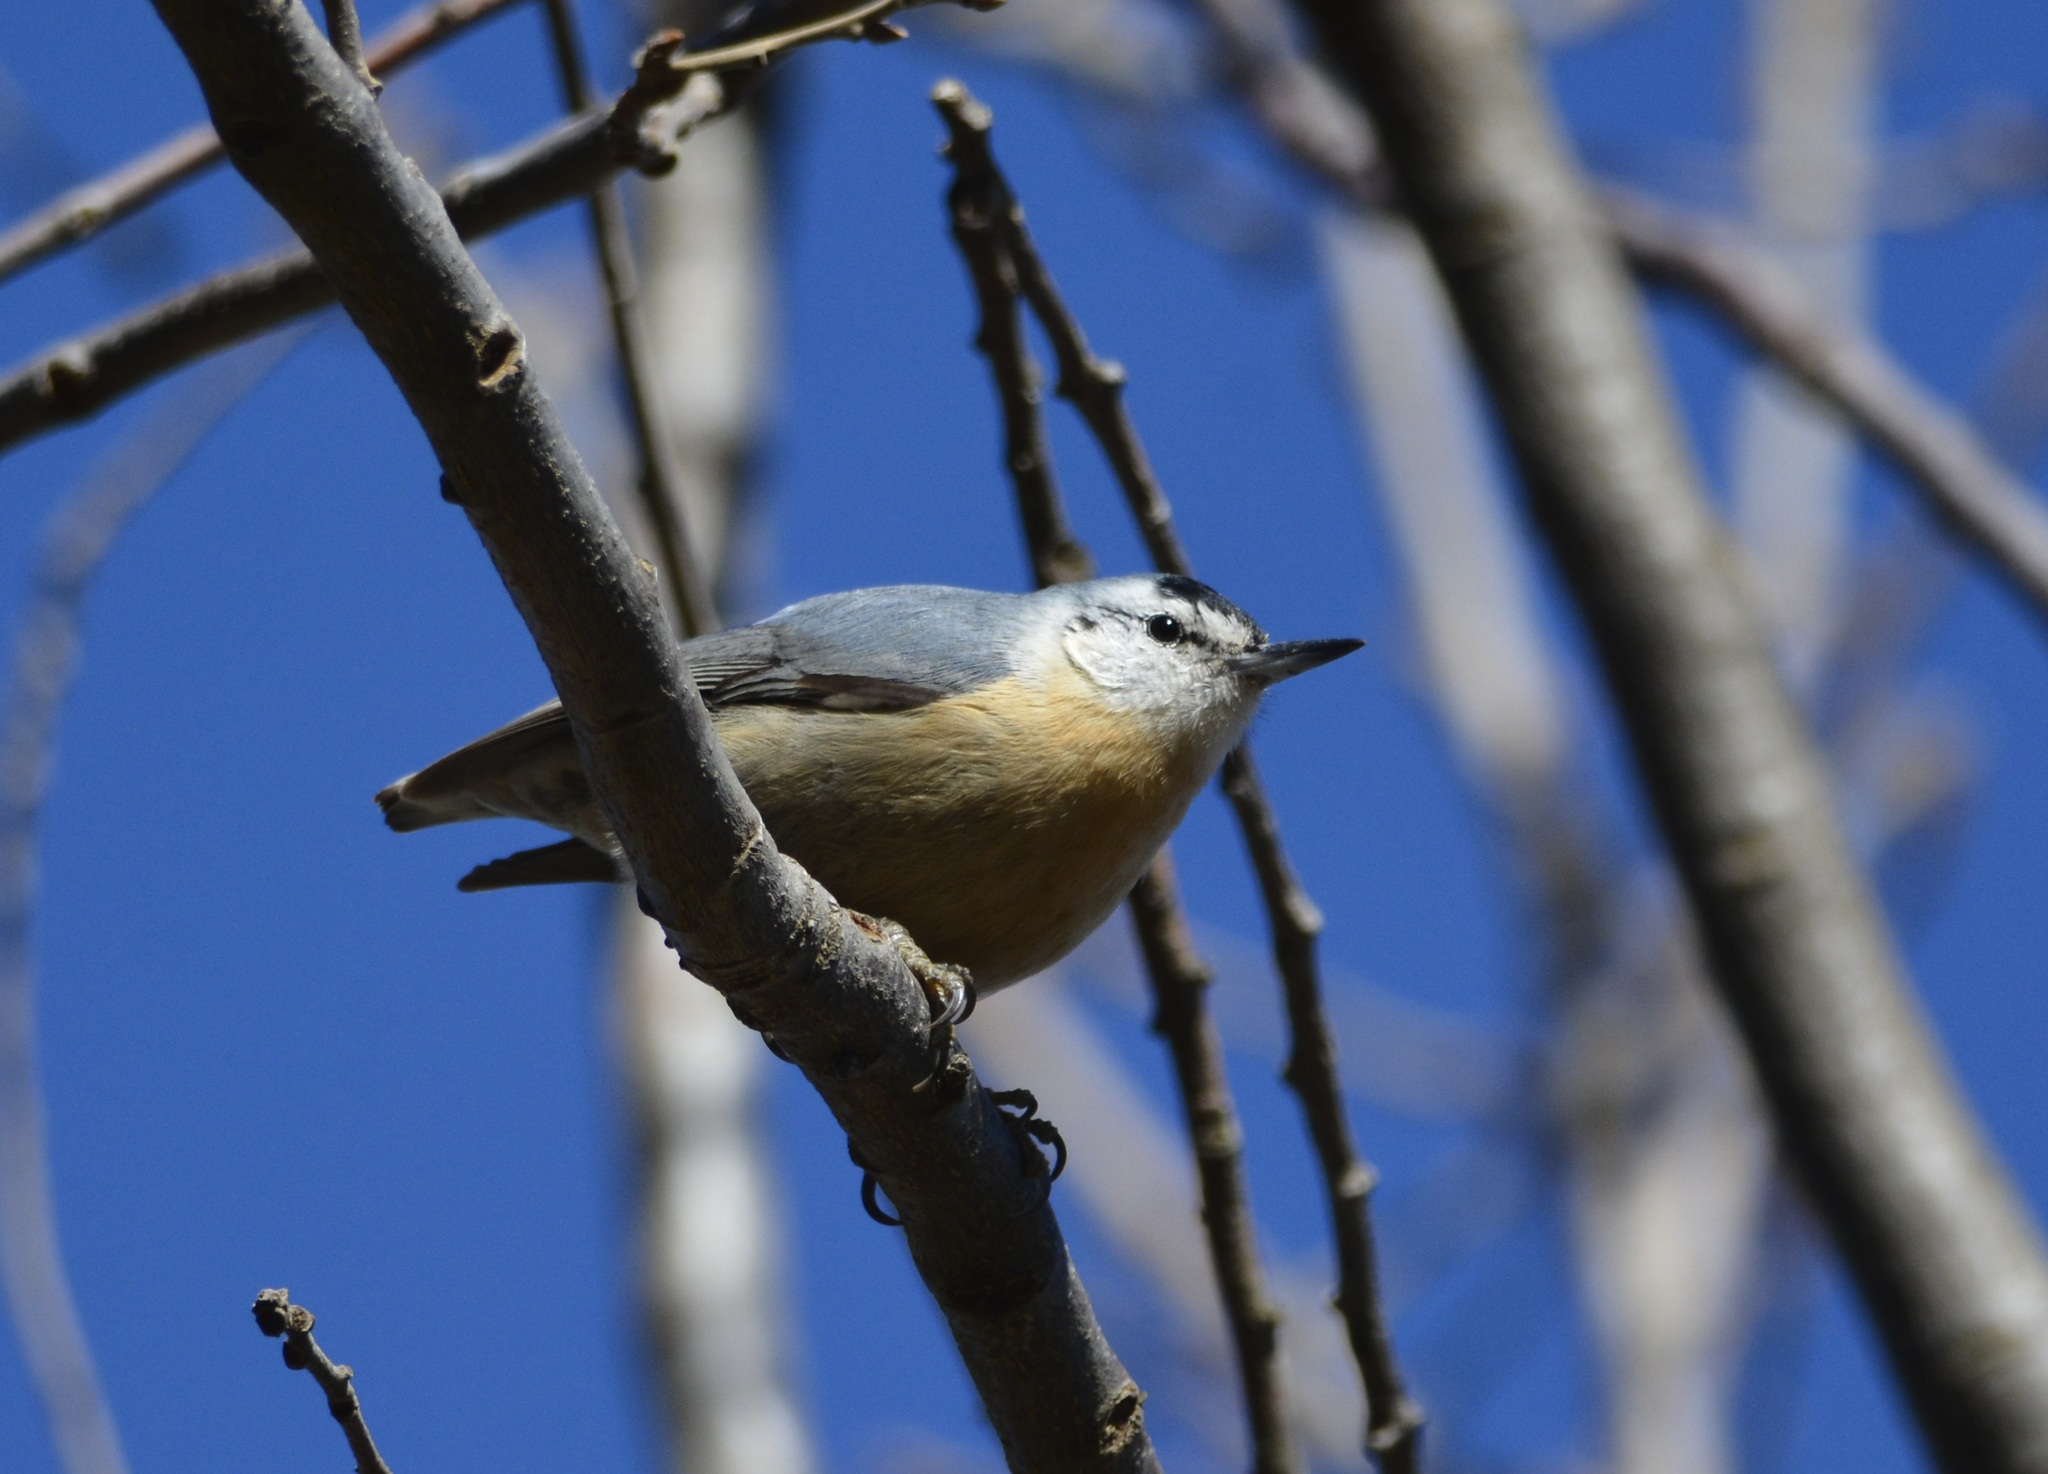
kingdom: Animalia
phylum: Chordata
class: Aves
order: Passeriformes
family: Sittidae
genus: Sitta
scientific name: Sitta ledanti
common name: Algerian nuthatch
